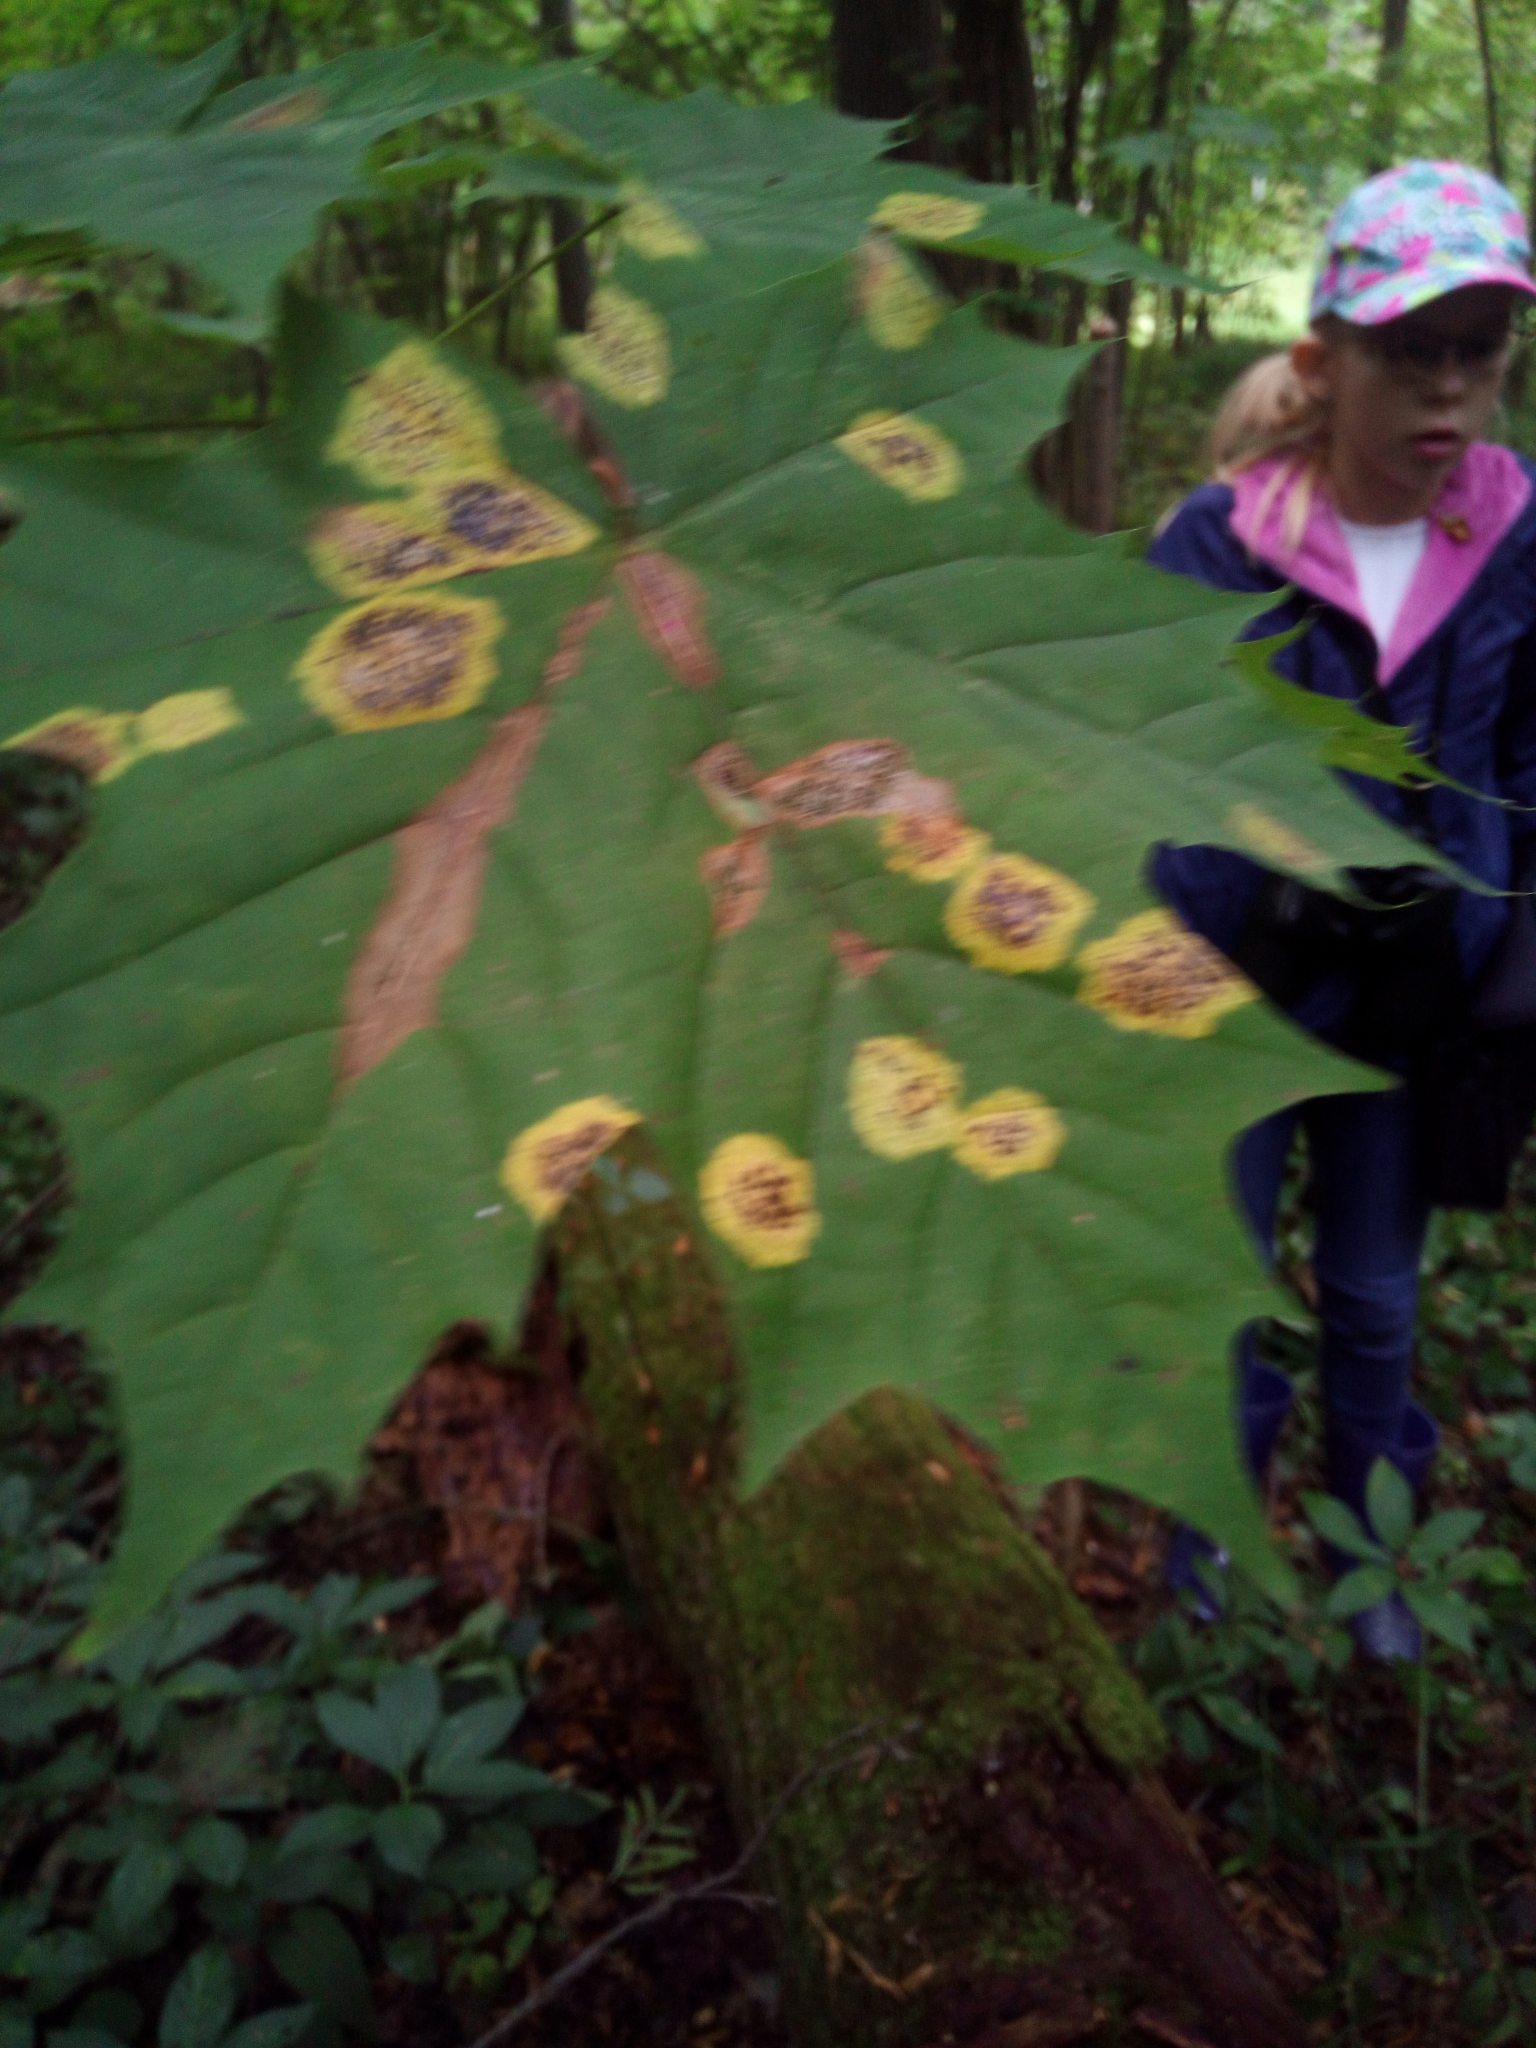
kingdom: Fungi
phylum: Ascomycota
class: Leotiomycetes
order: Rhytismatales
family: Rhytismataceae
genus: Rhytisma
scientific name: Rhytisma acerinum
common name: European tar spot
